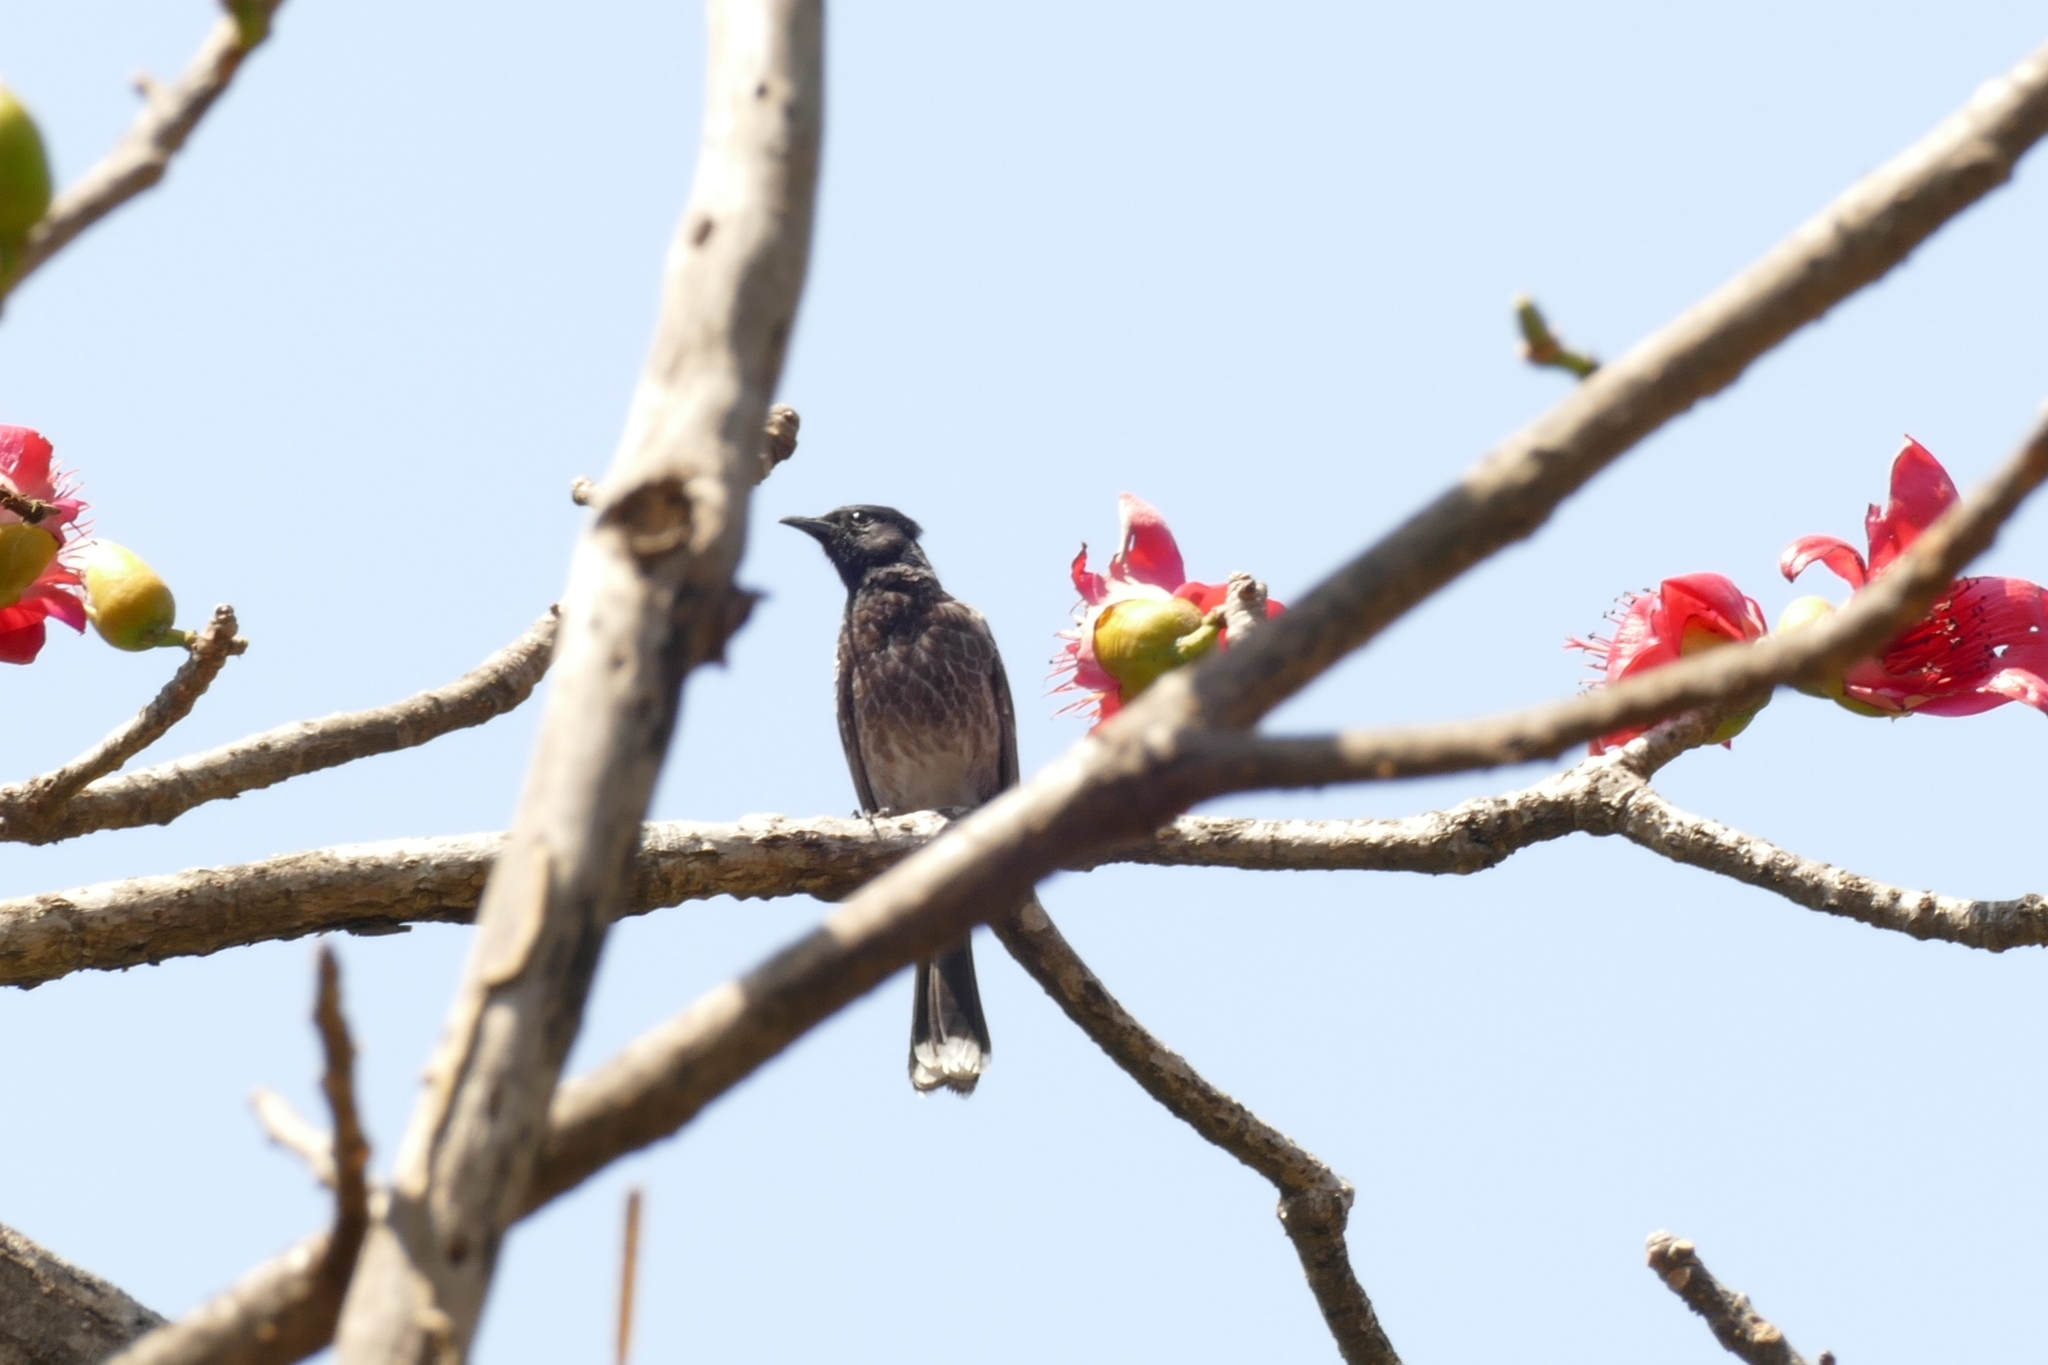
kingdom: Animalia
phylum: Chordata
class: Aves
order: Passeriformes
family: Pycnonotidae
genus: Pycnonotus
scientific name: Pycnonotus cafer
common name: Red-vented bulbul
